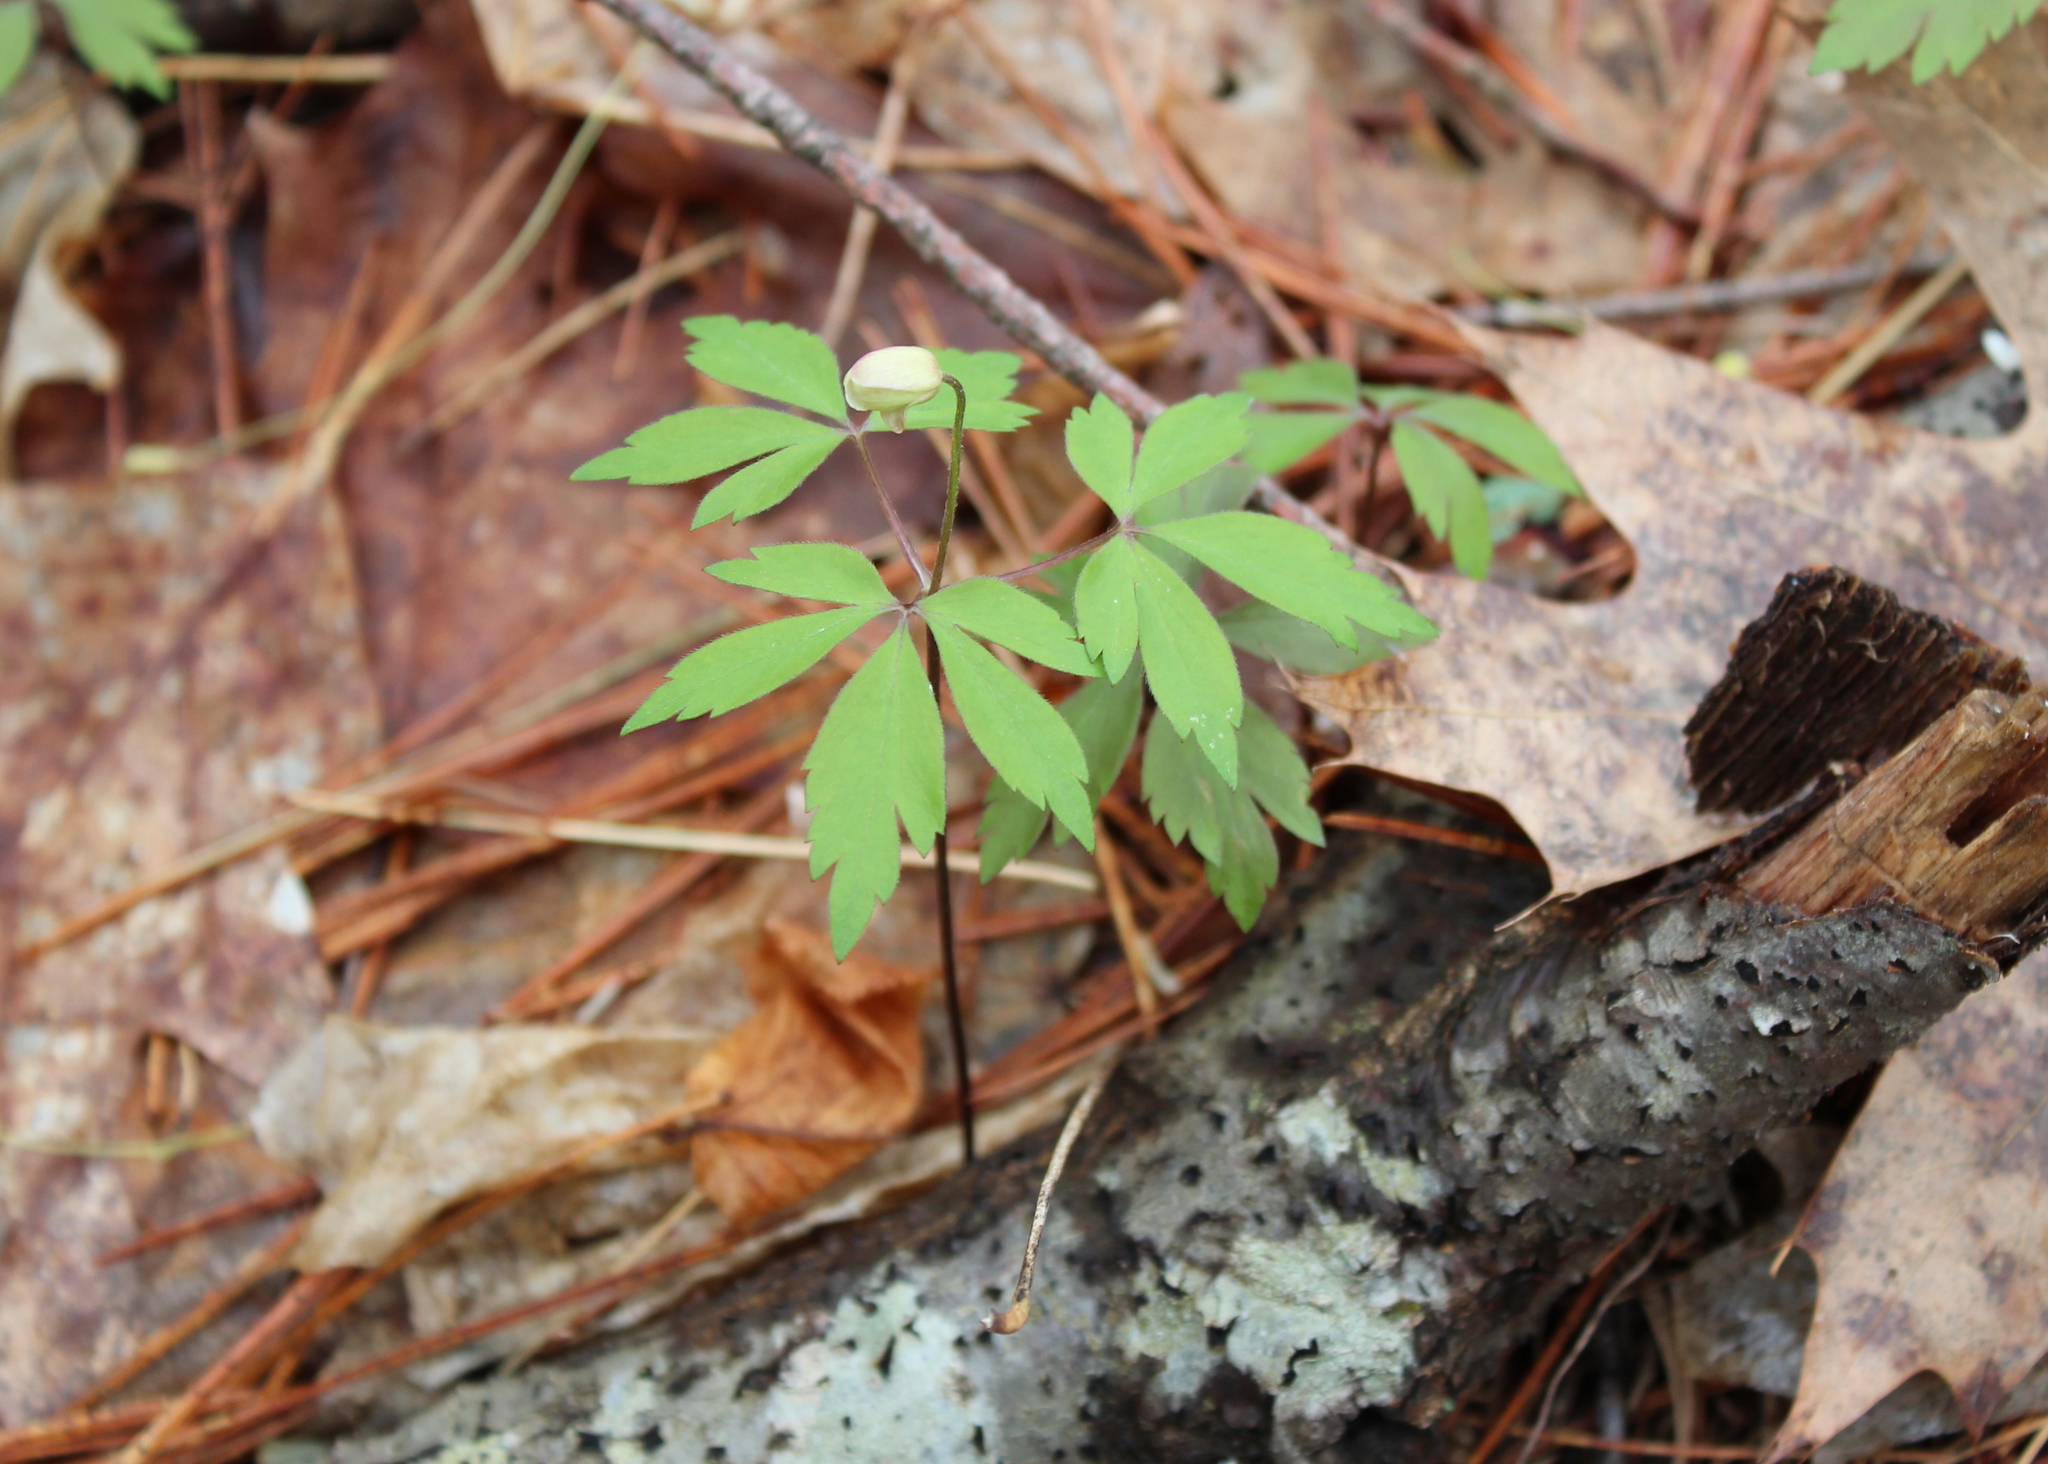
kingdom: Plantae
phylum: Tracheophyta
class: Magnoliopsida
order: Ranunculales
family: Ranunculaceae
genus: Anemone
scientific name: Anemone quinquefolia
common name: Wood anemone
